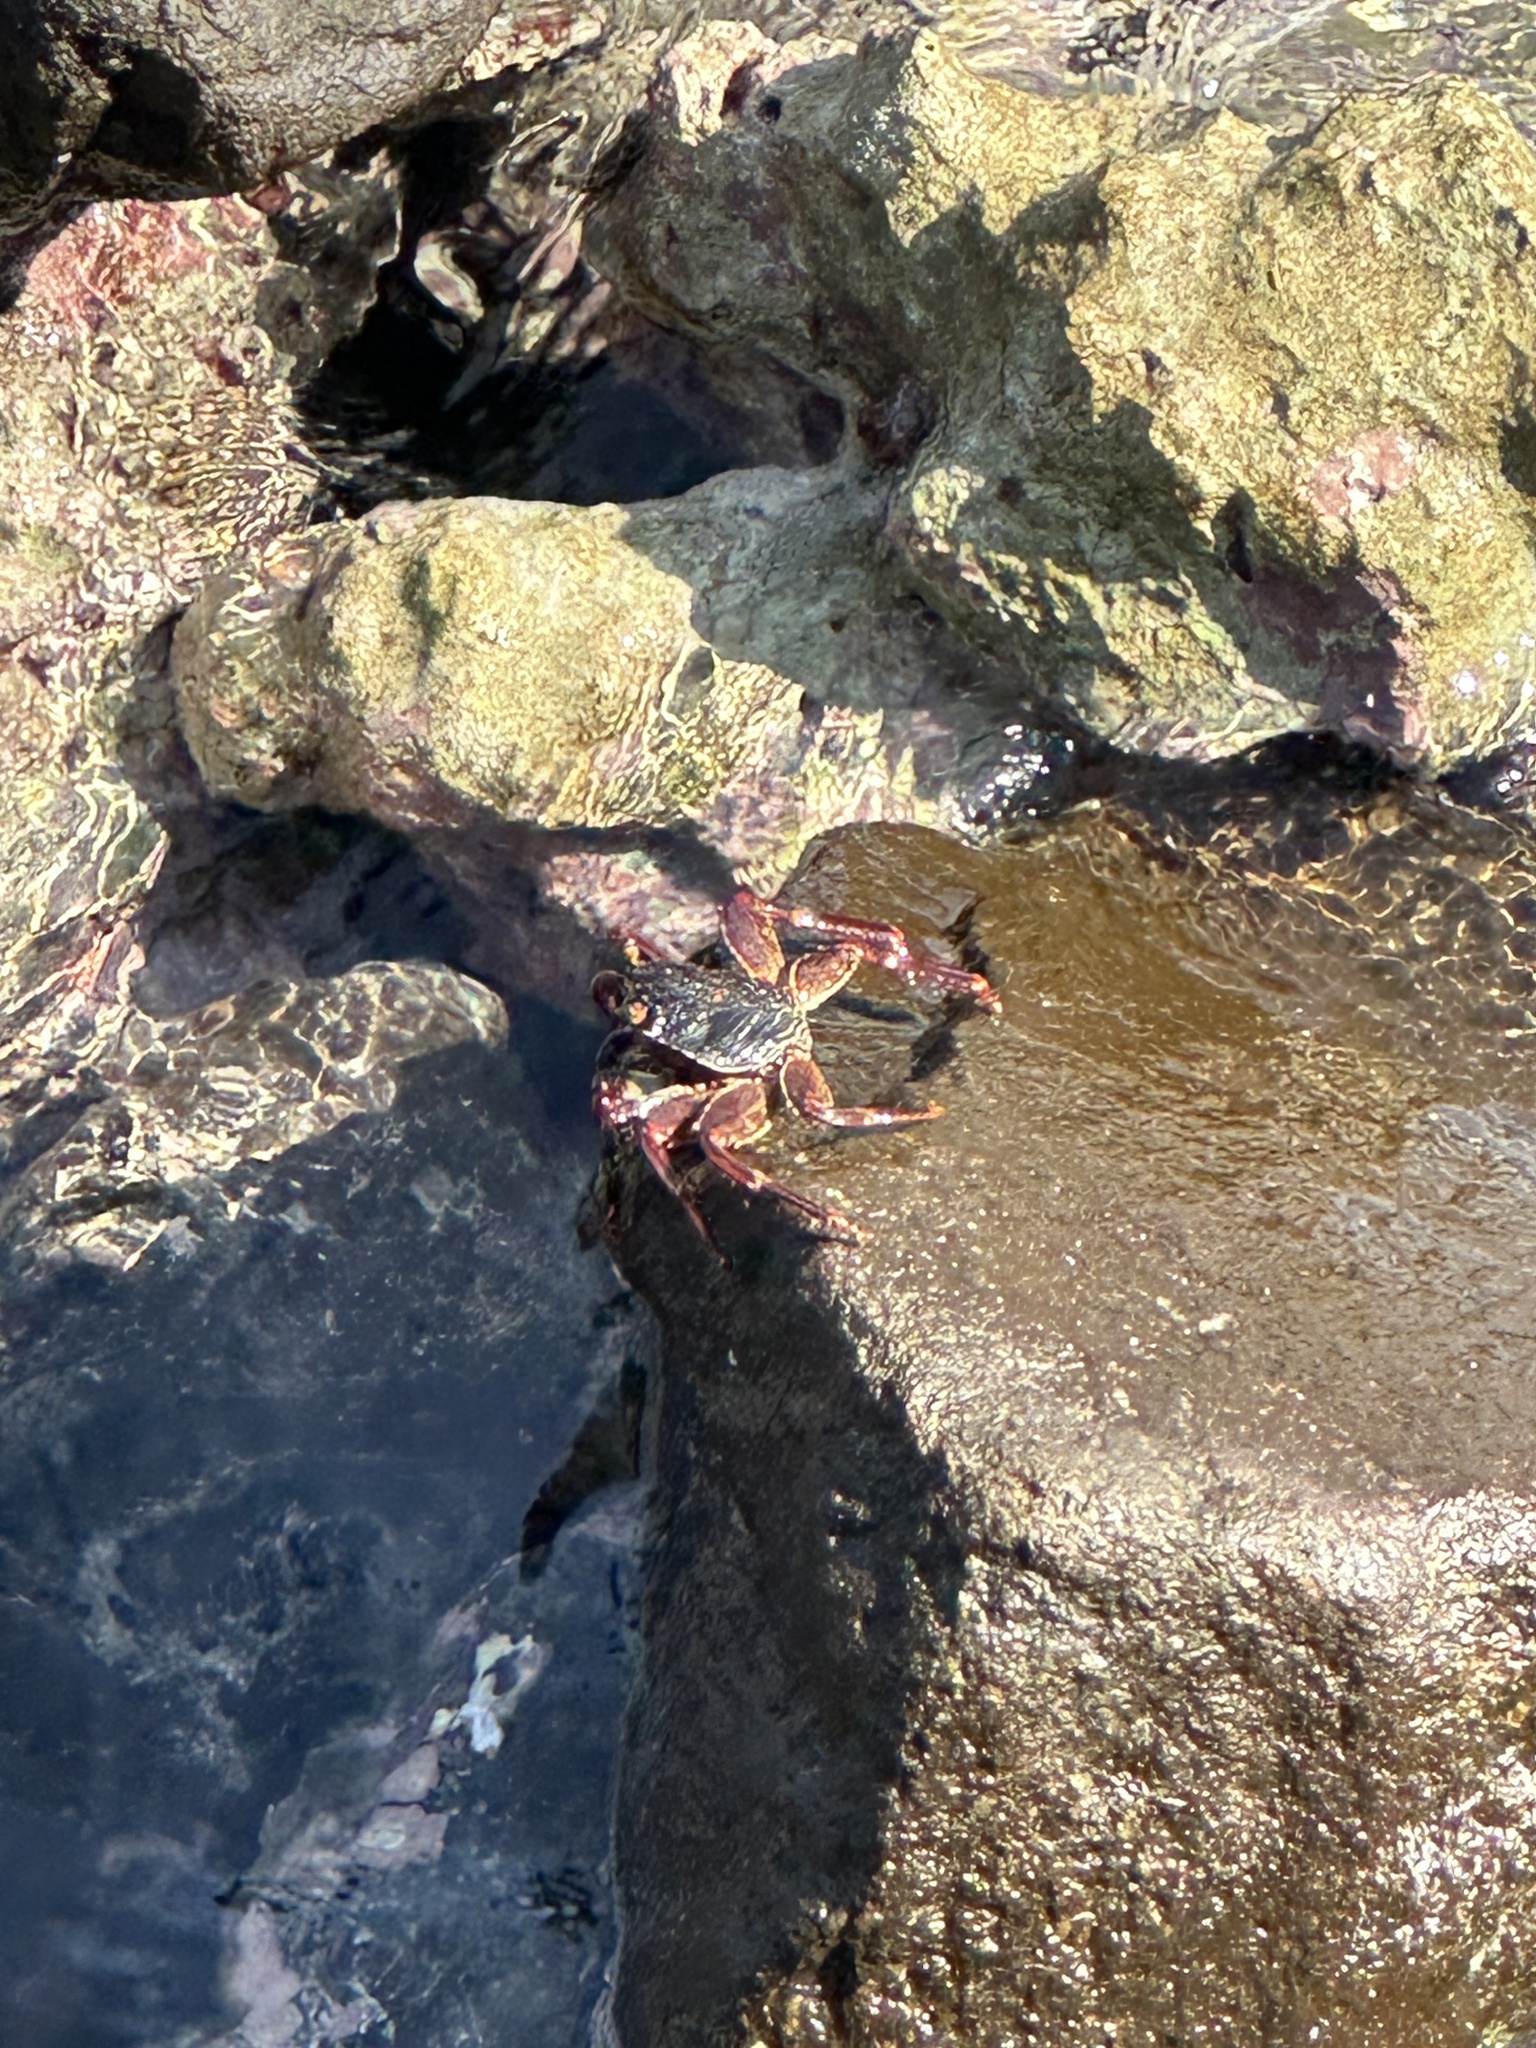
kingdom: Animalia
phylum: Arthropoda
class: Malacostraca
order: Decapoda
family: Grapsidae
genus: Grapsus
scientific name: Grapsus tenuicrustatus
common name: Natal lightfoot crab
